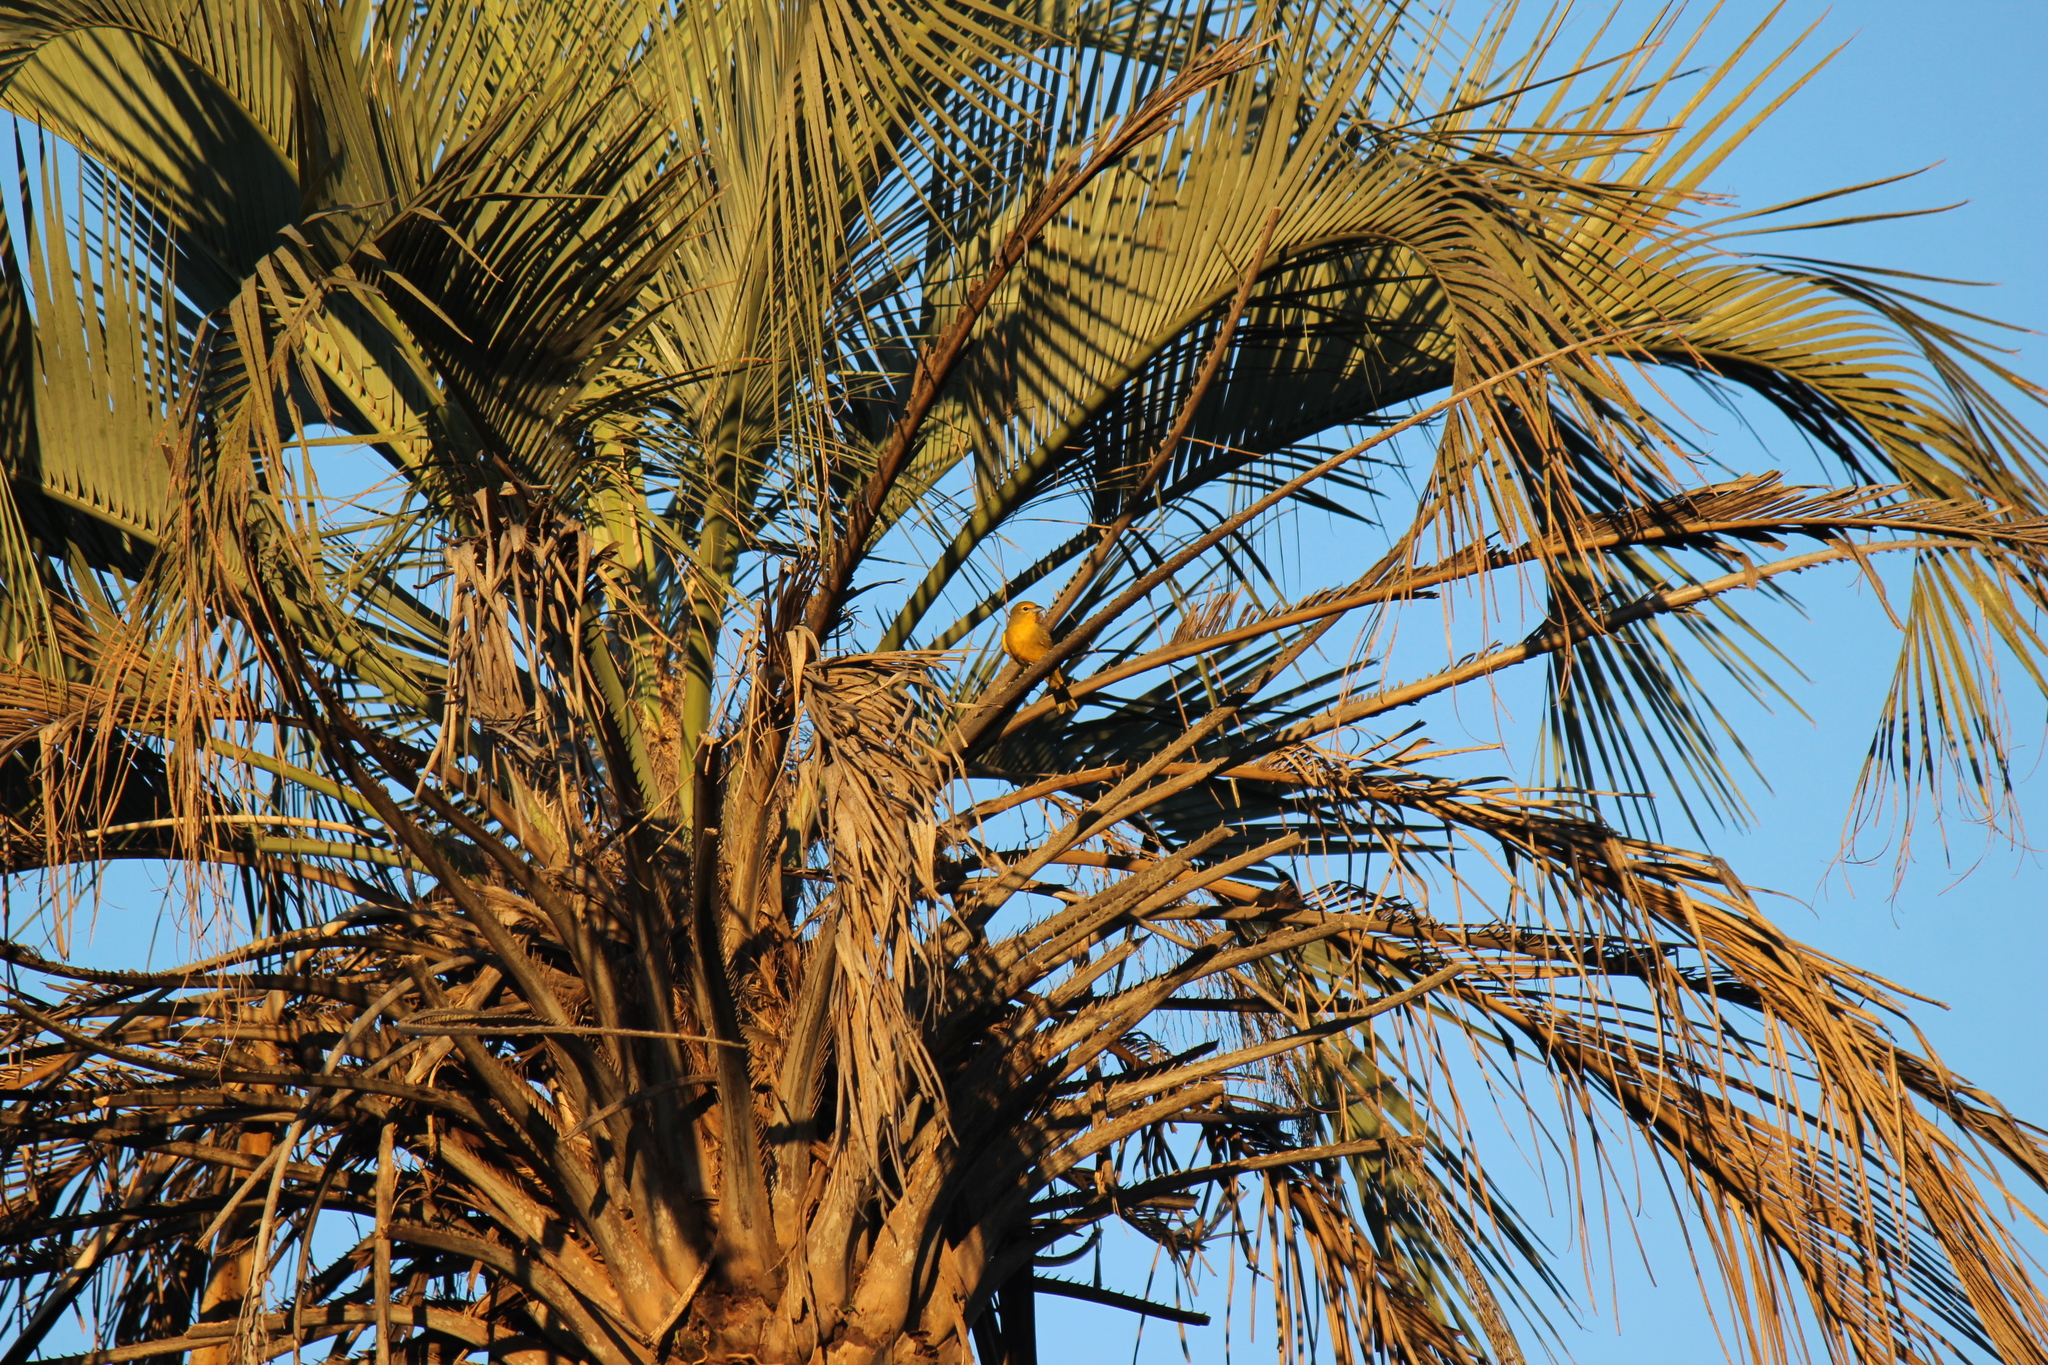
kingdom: Animalia
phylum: Chordata
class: Aves
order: Passeriformes
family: Cardinalidae
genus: Piranga
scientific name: Piranga flava
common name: Red tanager
